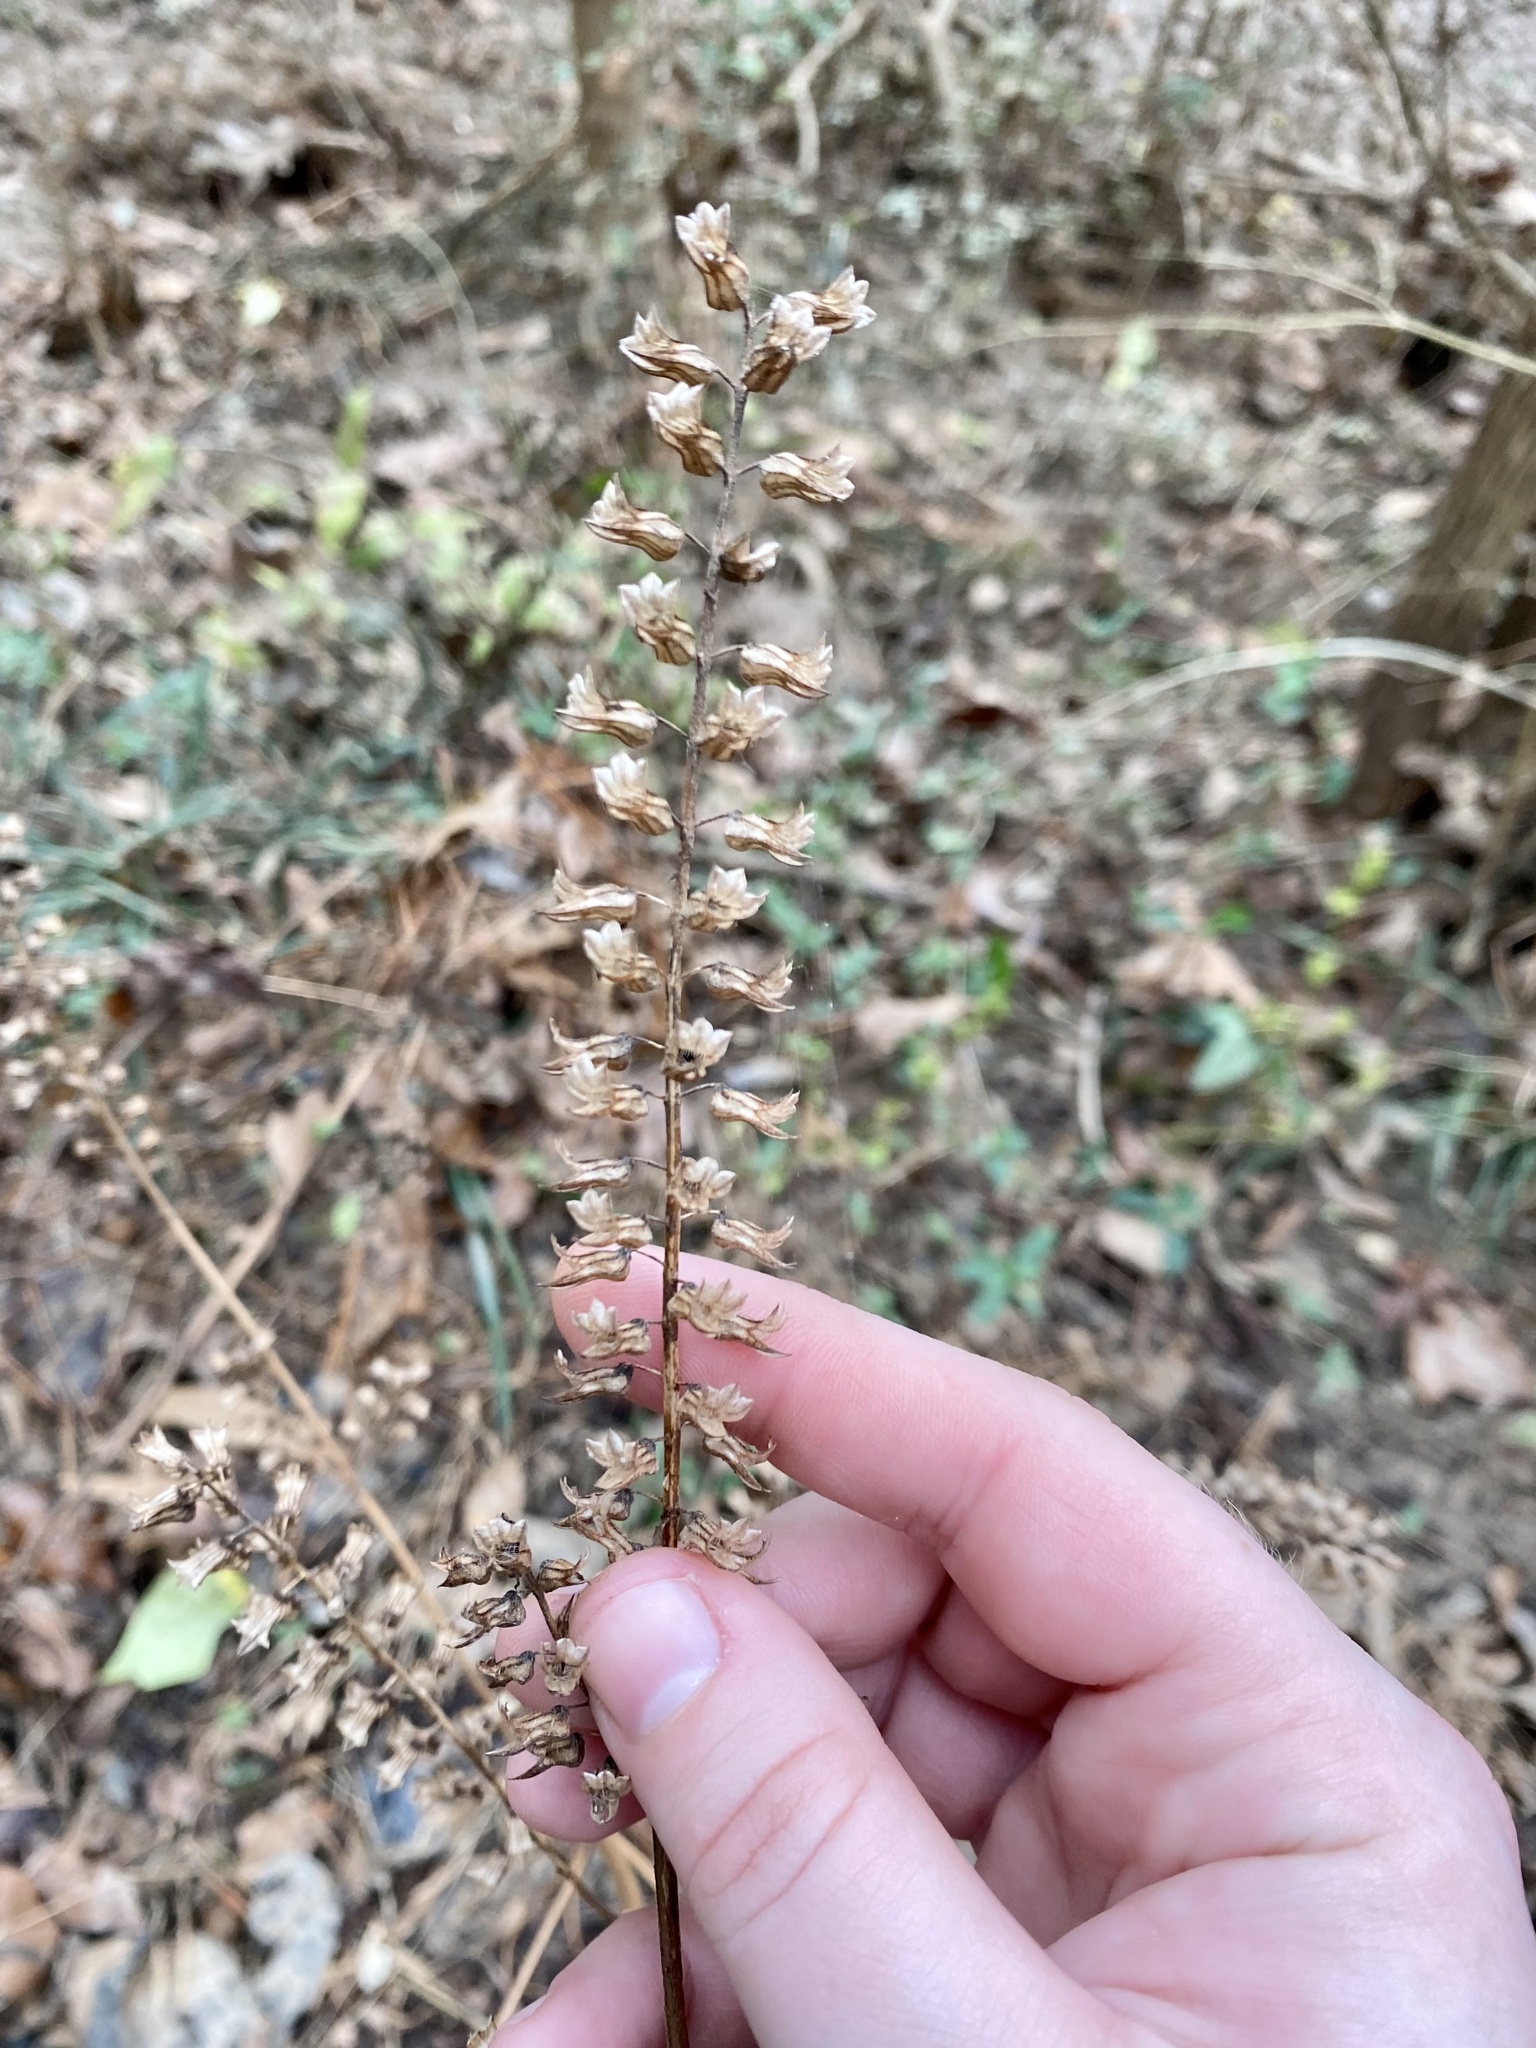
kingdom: Plantae
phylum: Tracheophyta
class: Magnoliopsida
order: Lamiales
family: Lamiaceae
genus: Perilla
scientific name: Perilla frutescens
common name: Perilla
